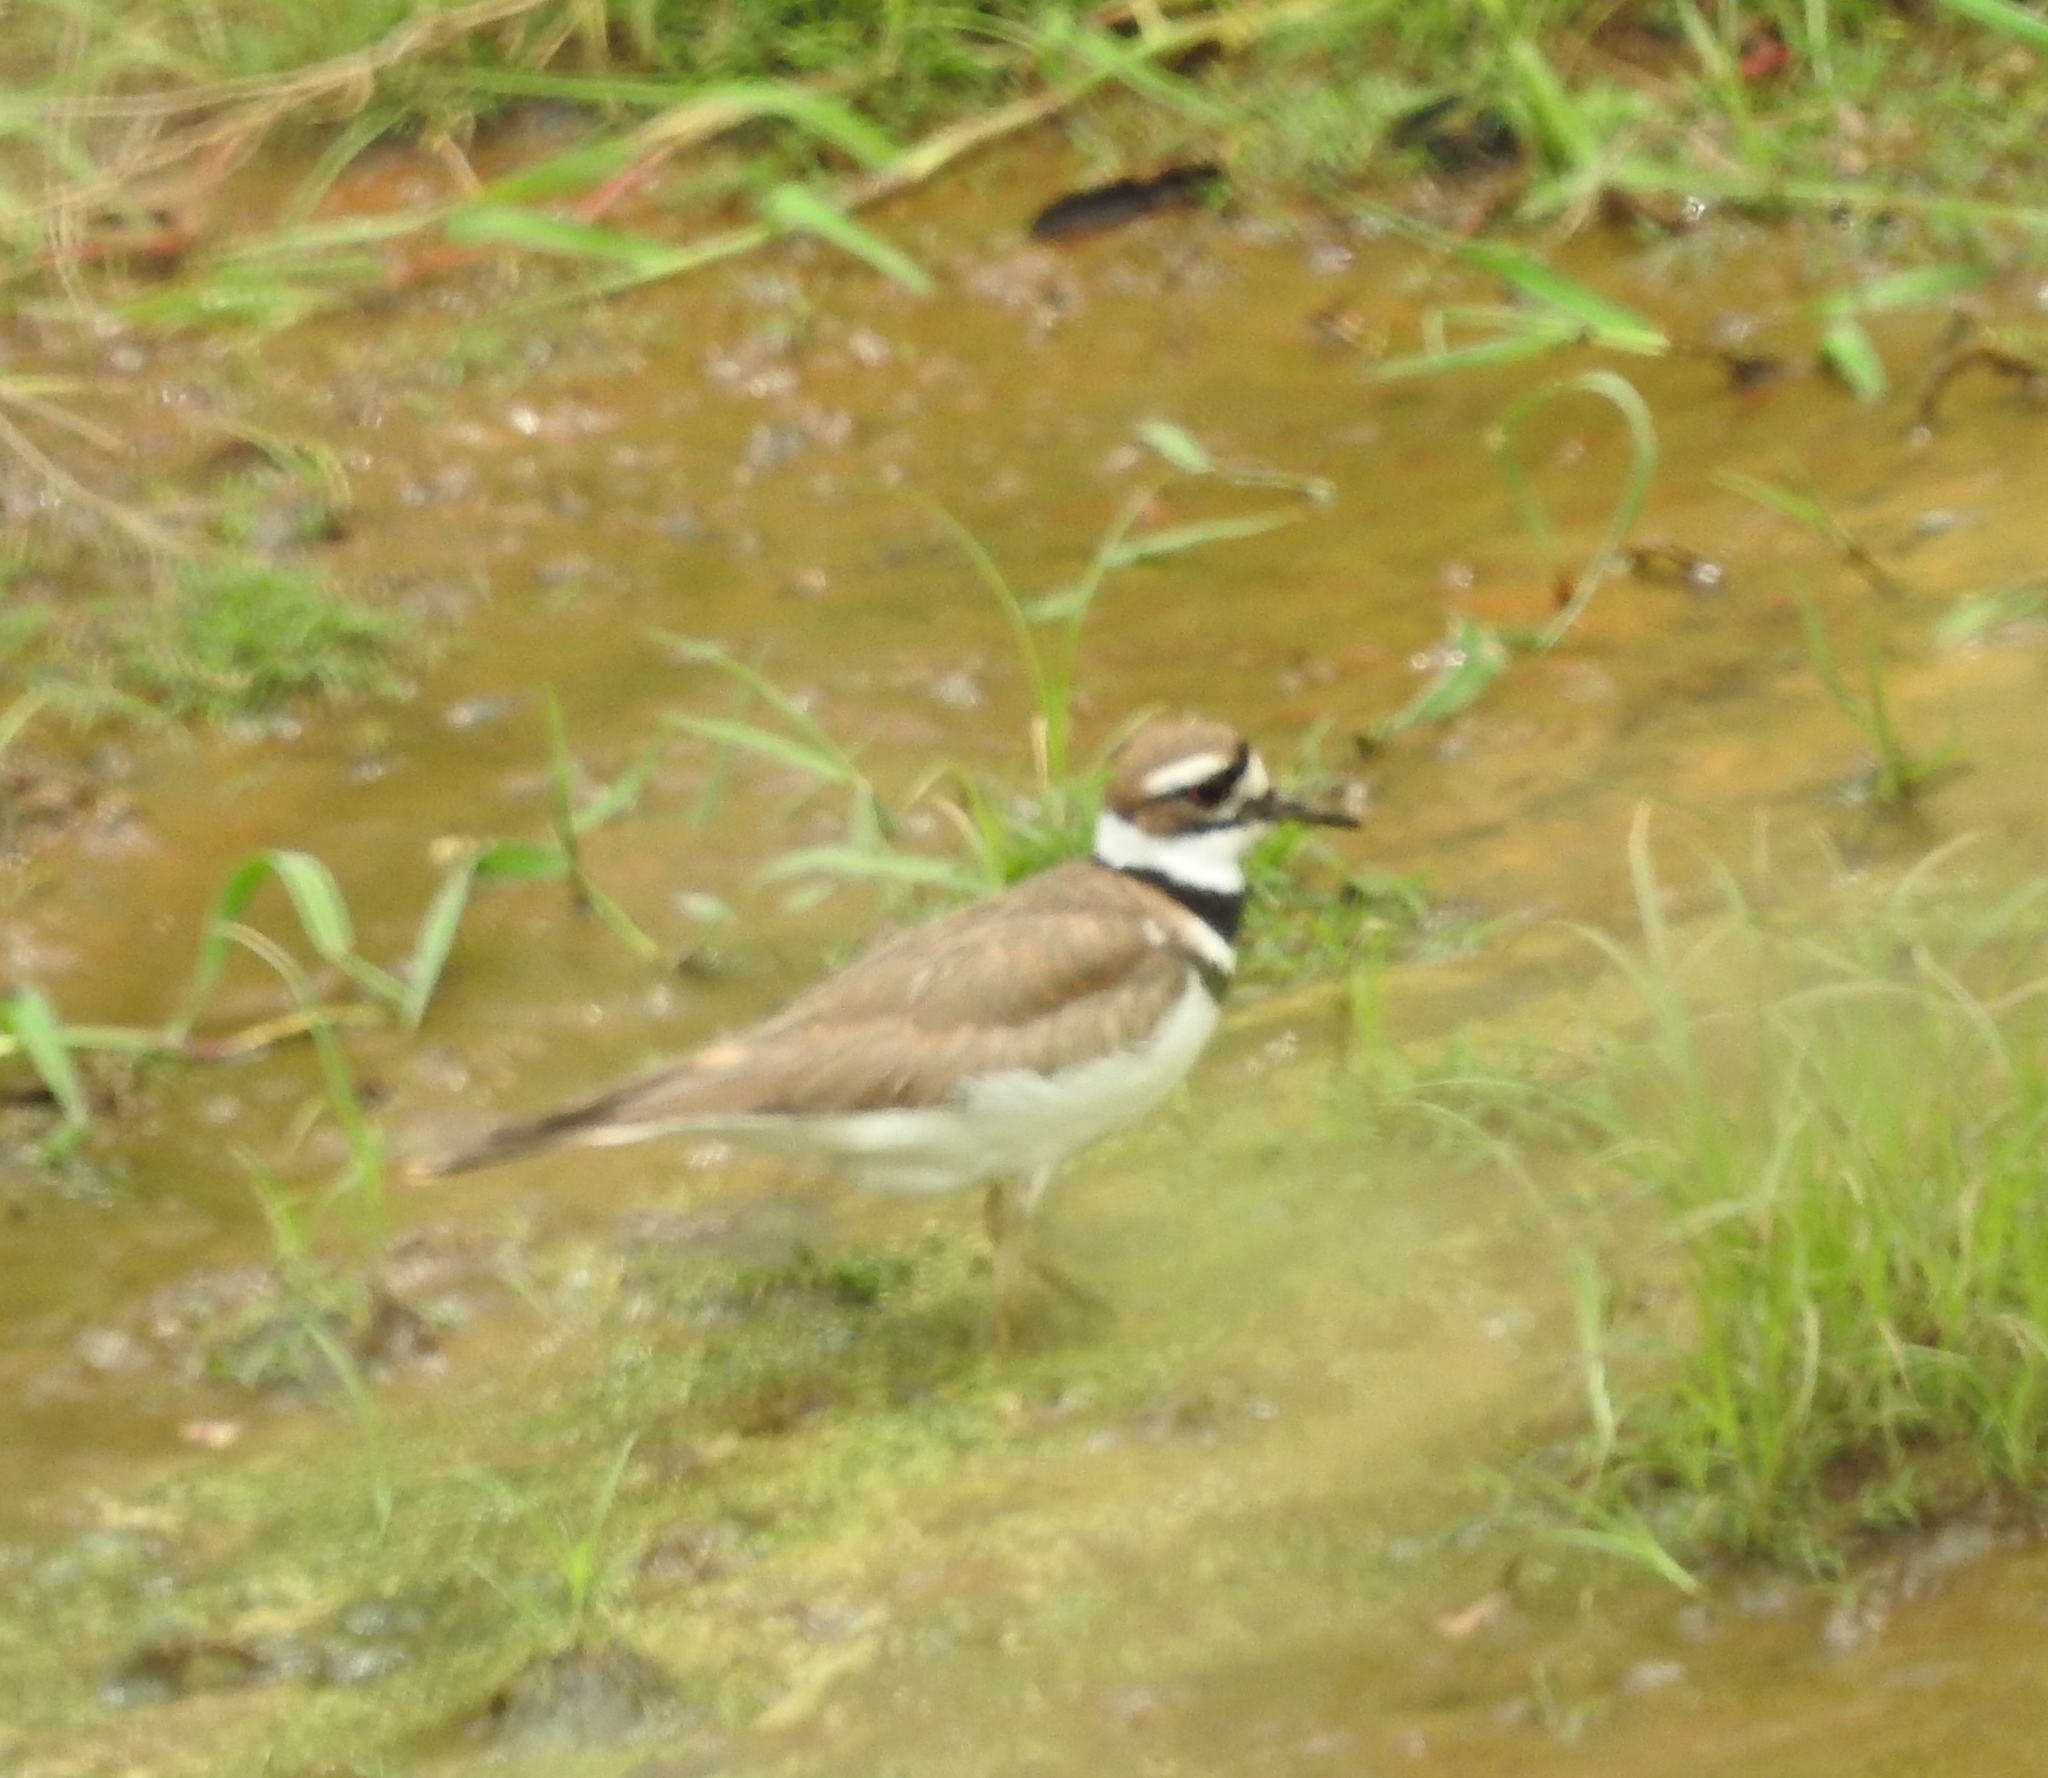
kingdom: Animalia
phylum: Chordata
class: Aves
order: Charadriiformes
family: Charadriidae
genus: Charadrius
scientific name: Charadrius vociferus
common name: Killdeer
